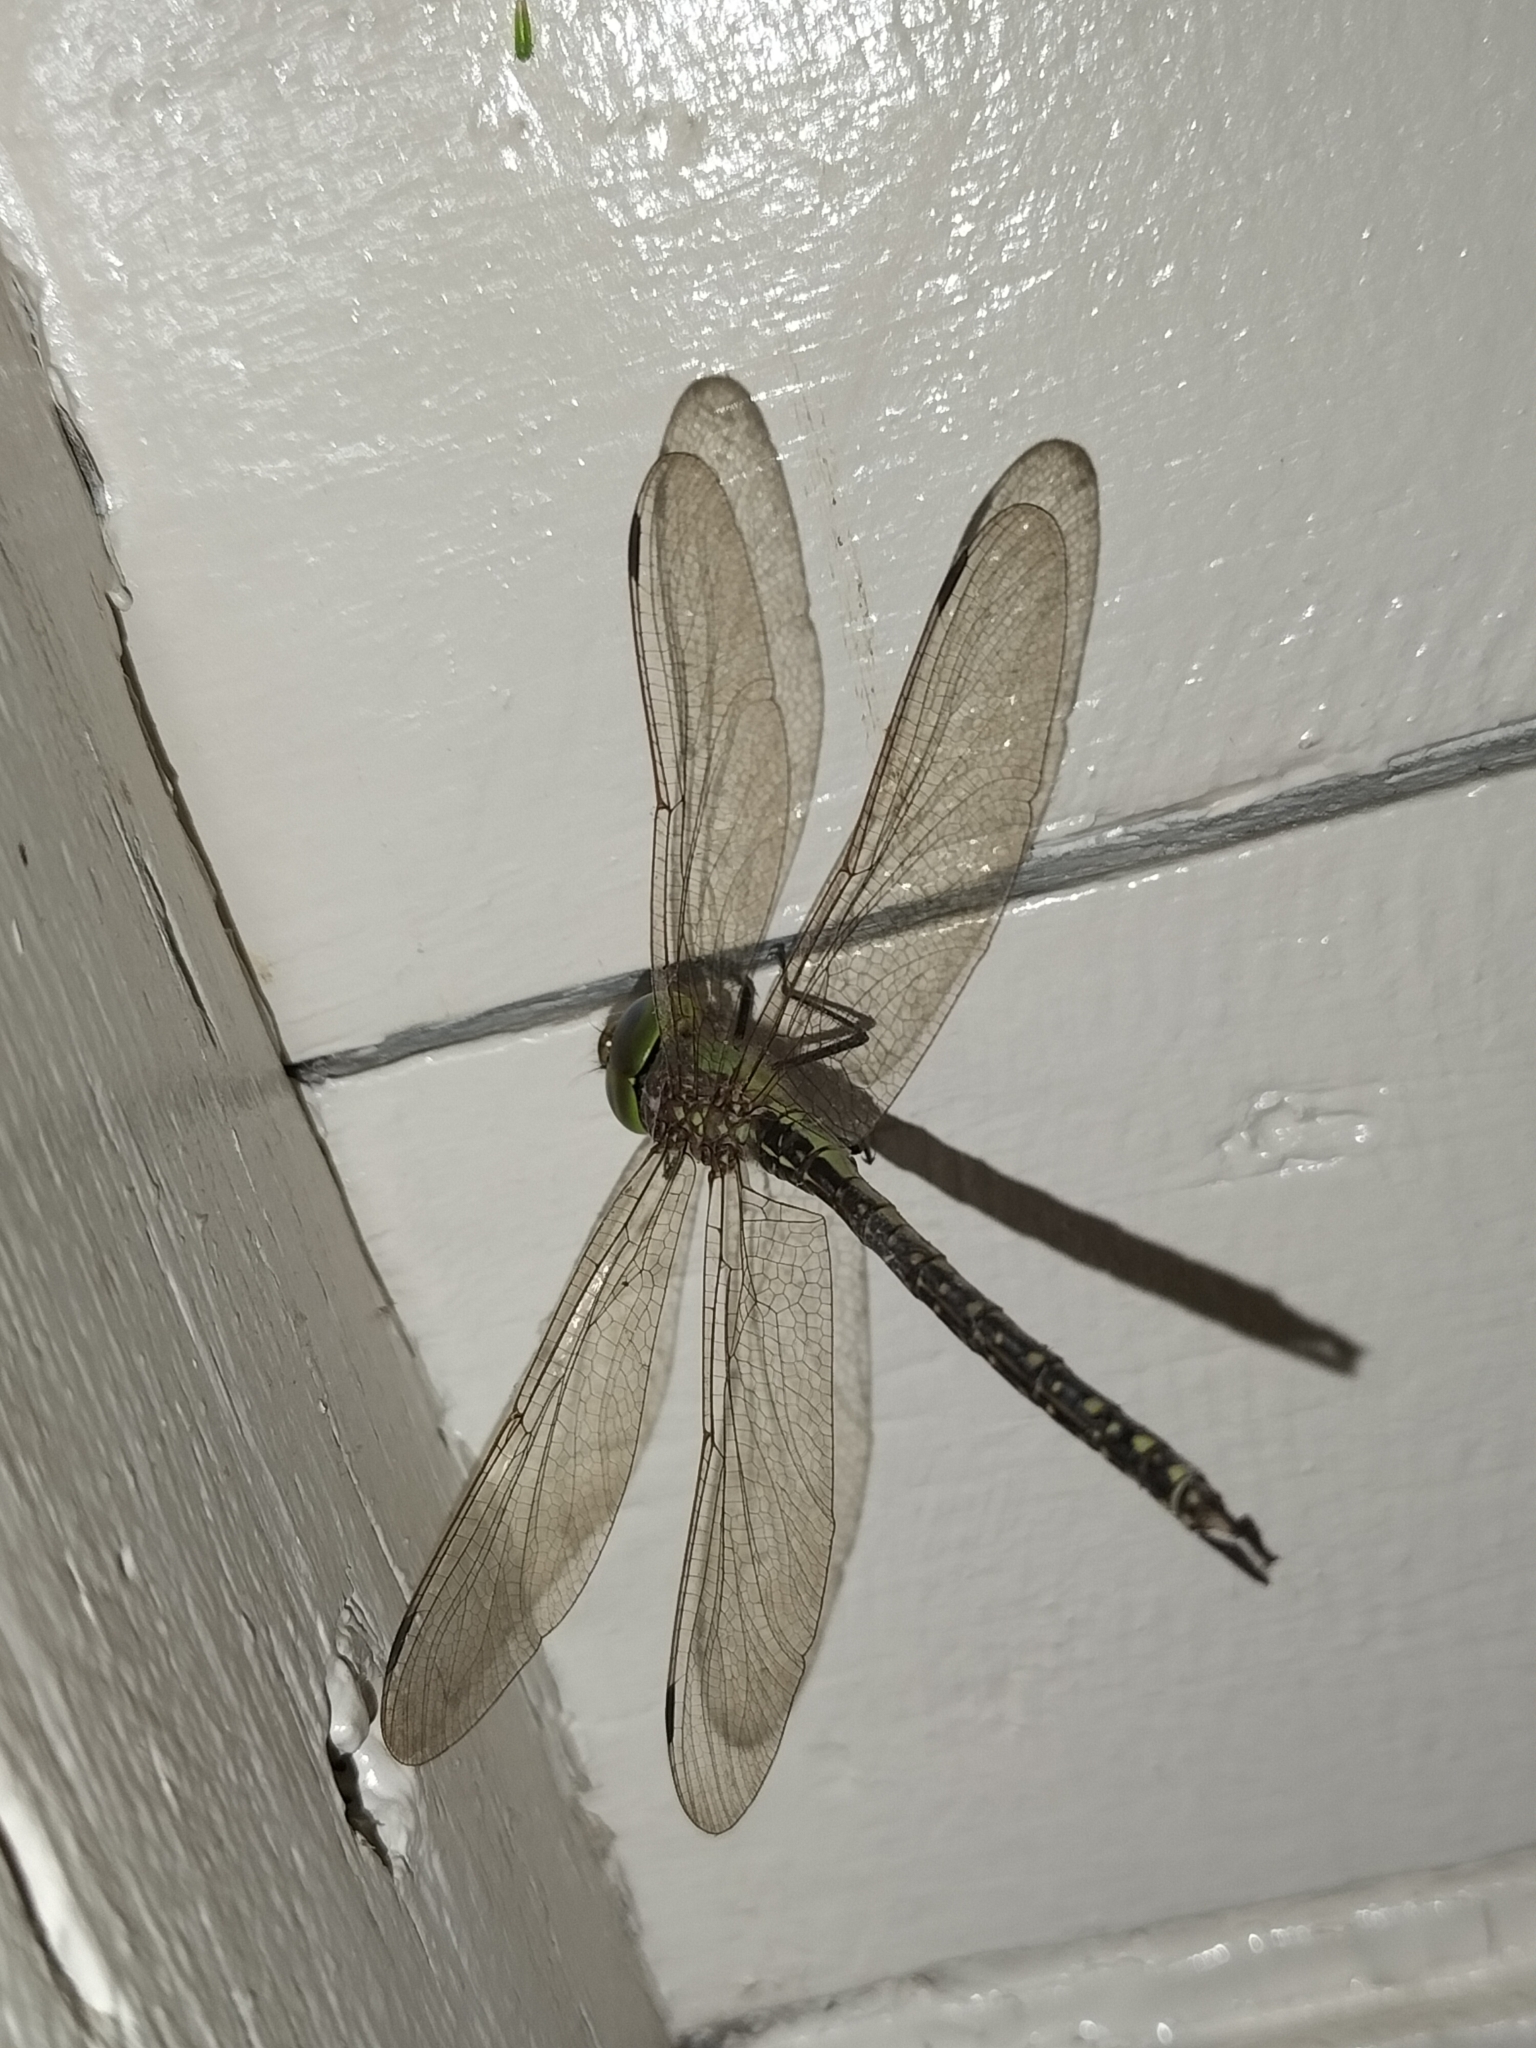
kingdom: Animalia
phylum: Arthropoda
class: Insecta
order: Odonata
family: Aeshnidae
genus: Austrogynacantha
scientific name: Austrogynacantha heterogena
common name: Australian duskhawker
